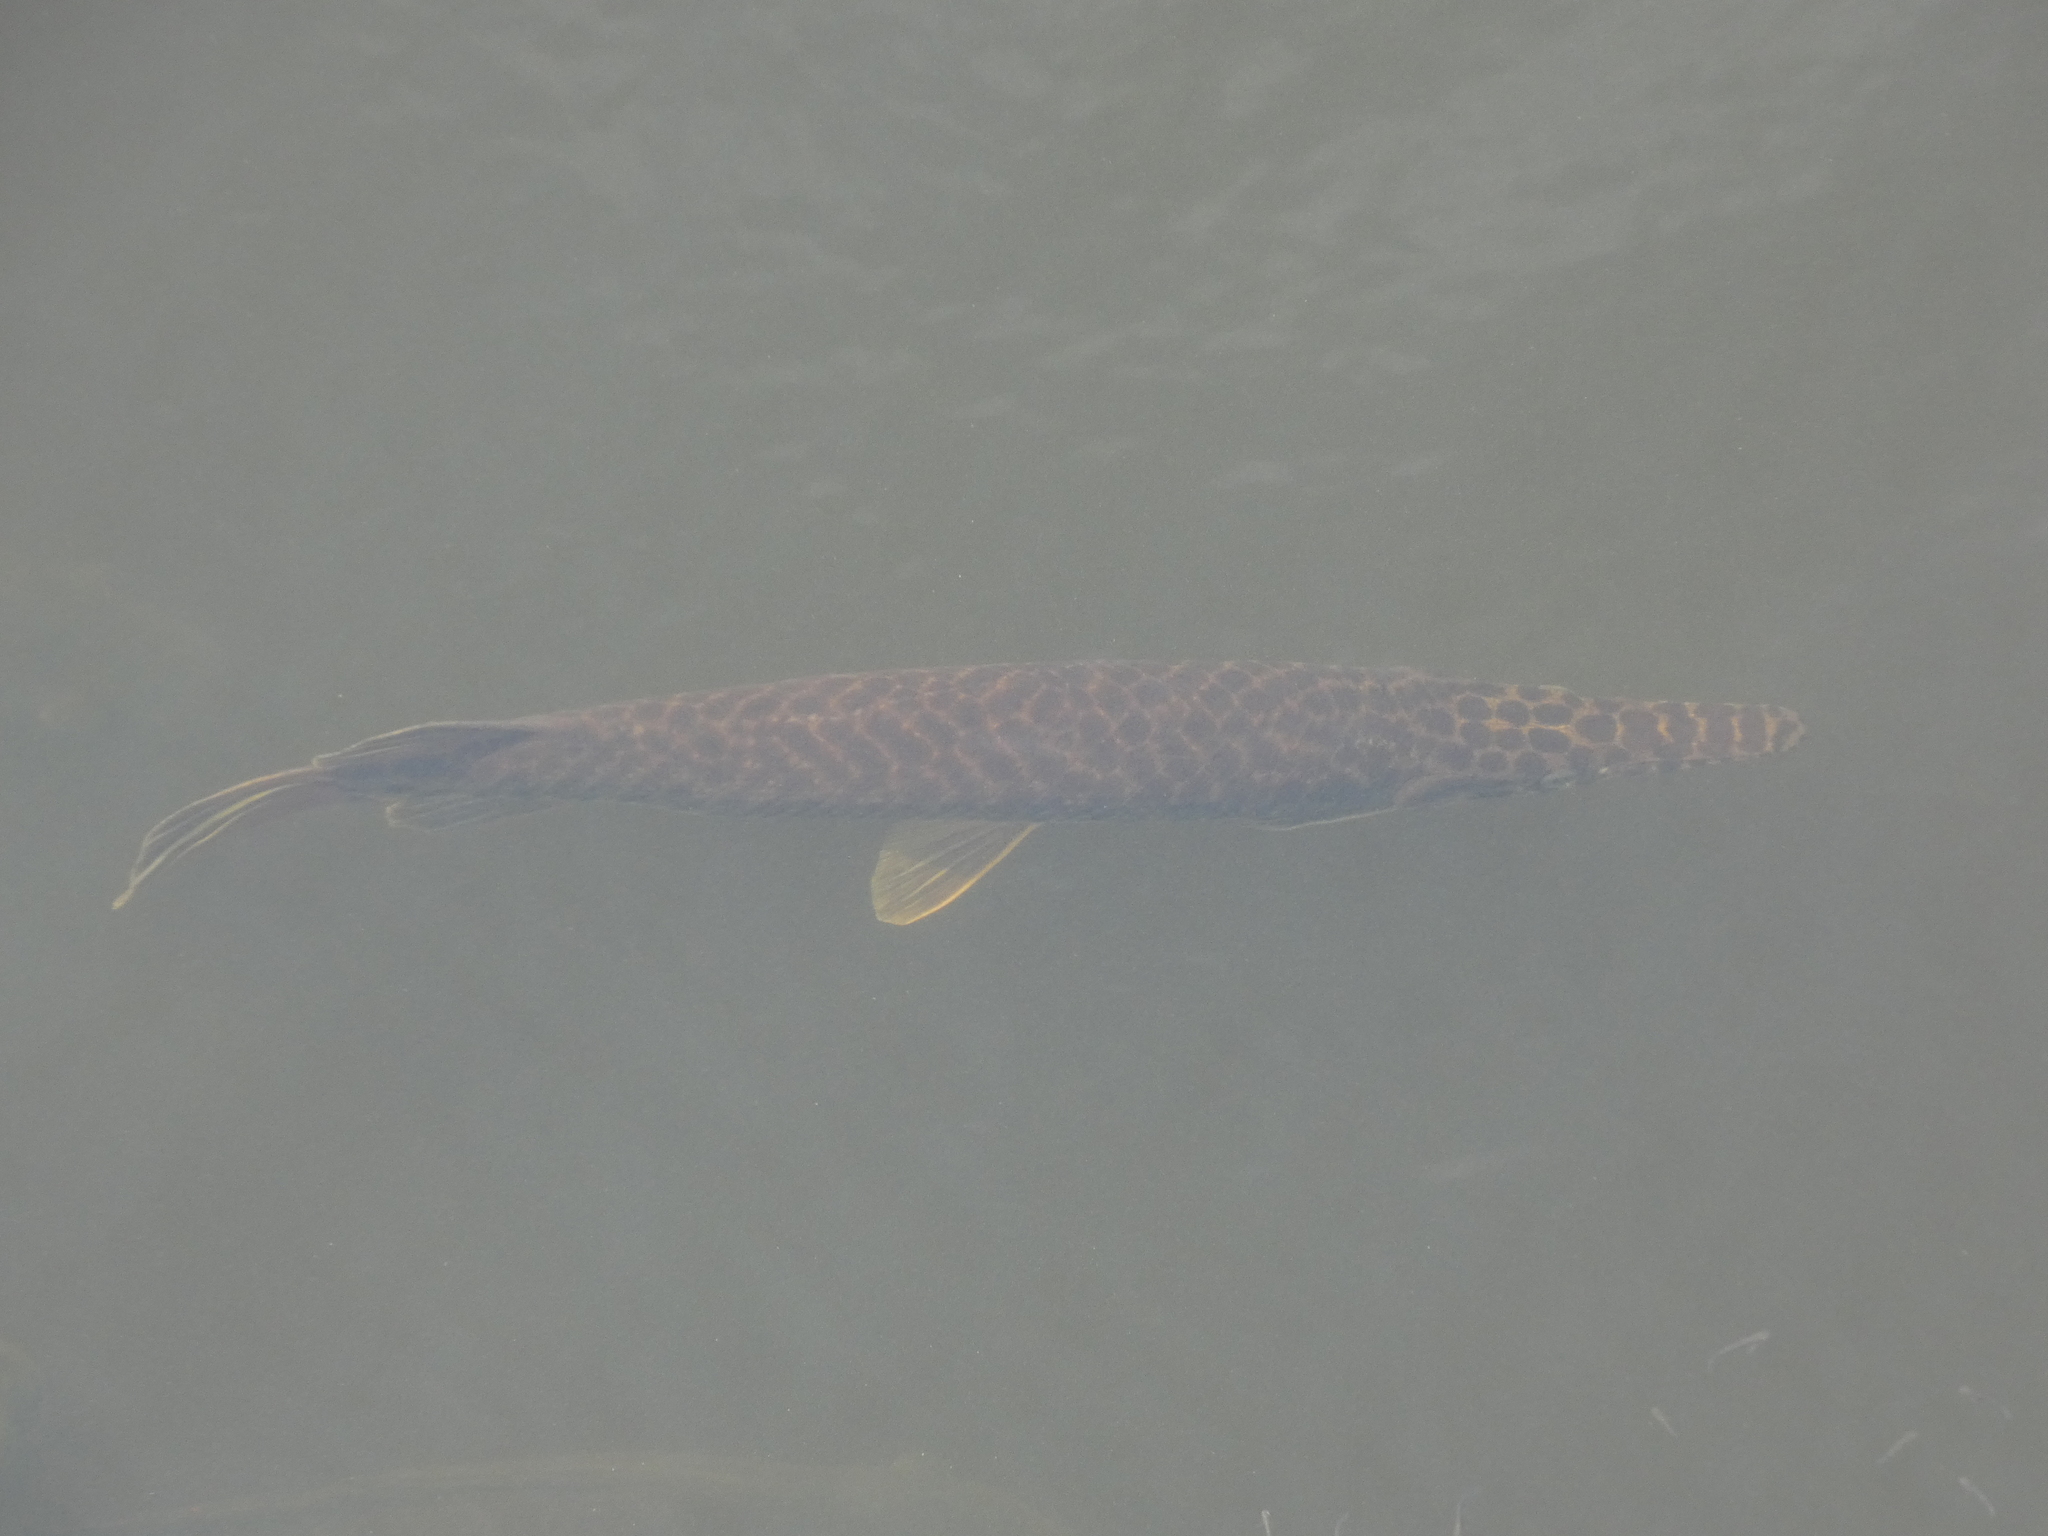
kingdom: Animalia
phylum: Chordata
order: Lepisosteiformes
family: Lepisosteidae
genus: Lepisosteus
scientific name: Lepisosteus platyrhincus
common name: Florida gar
